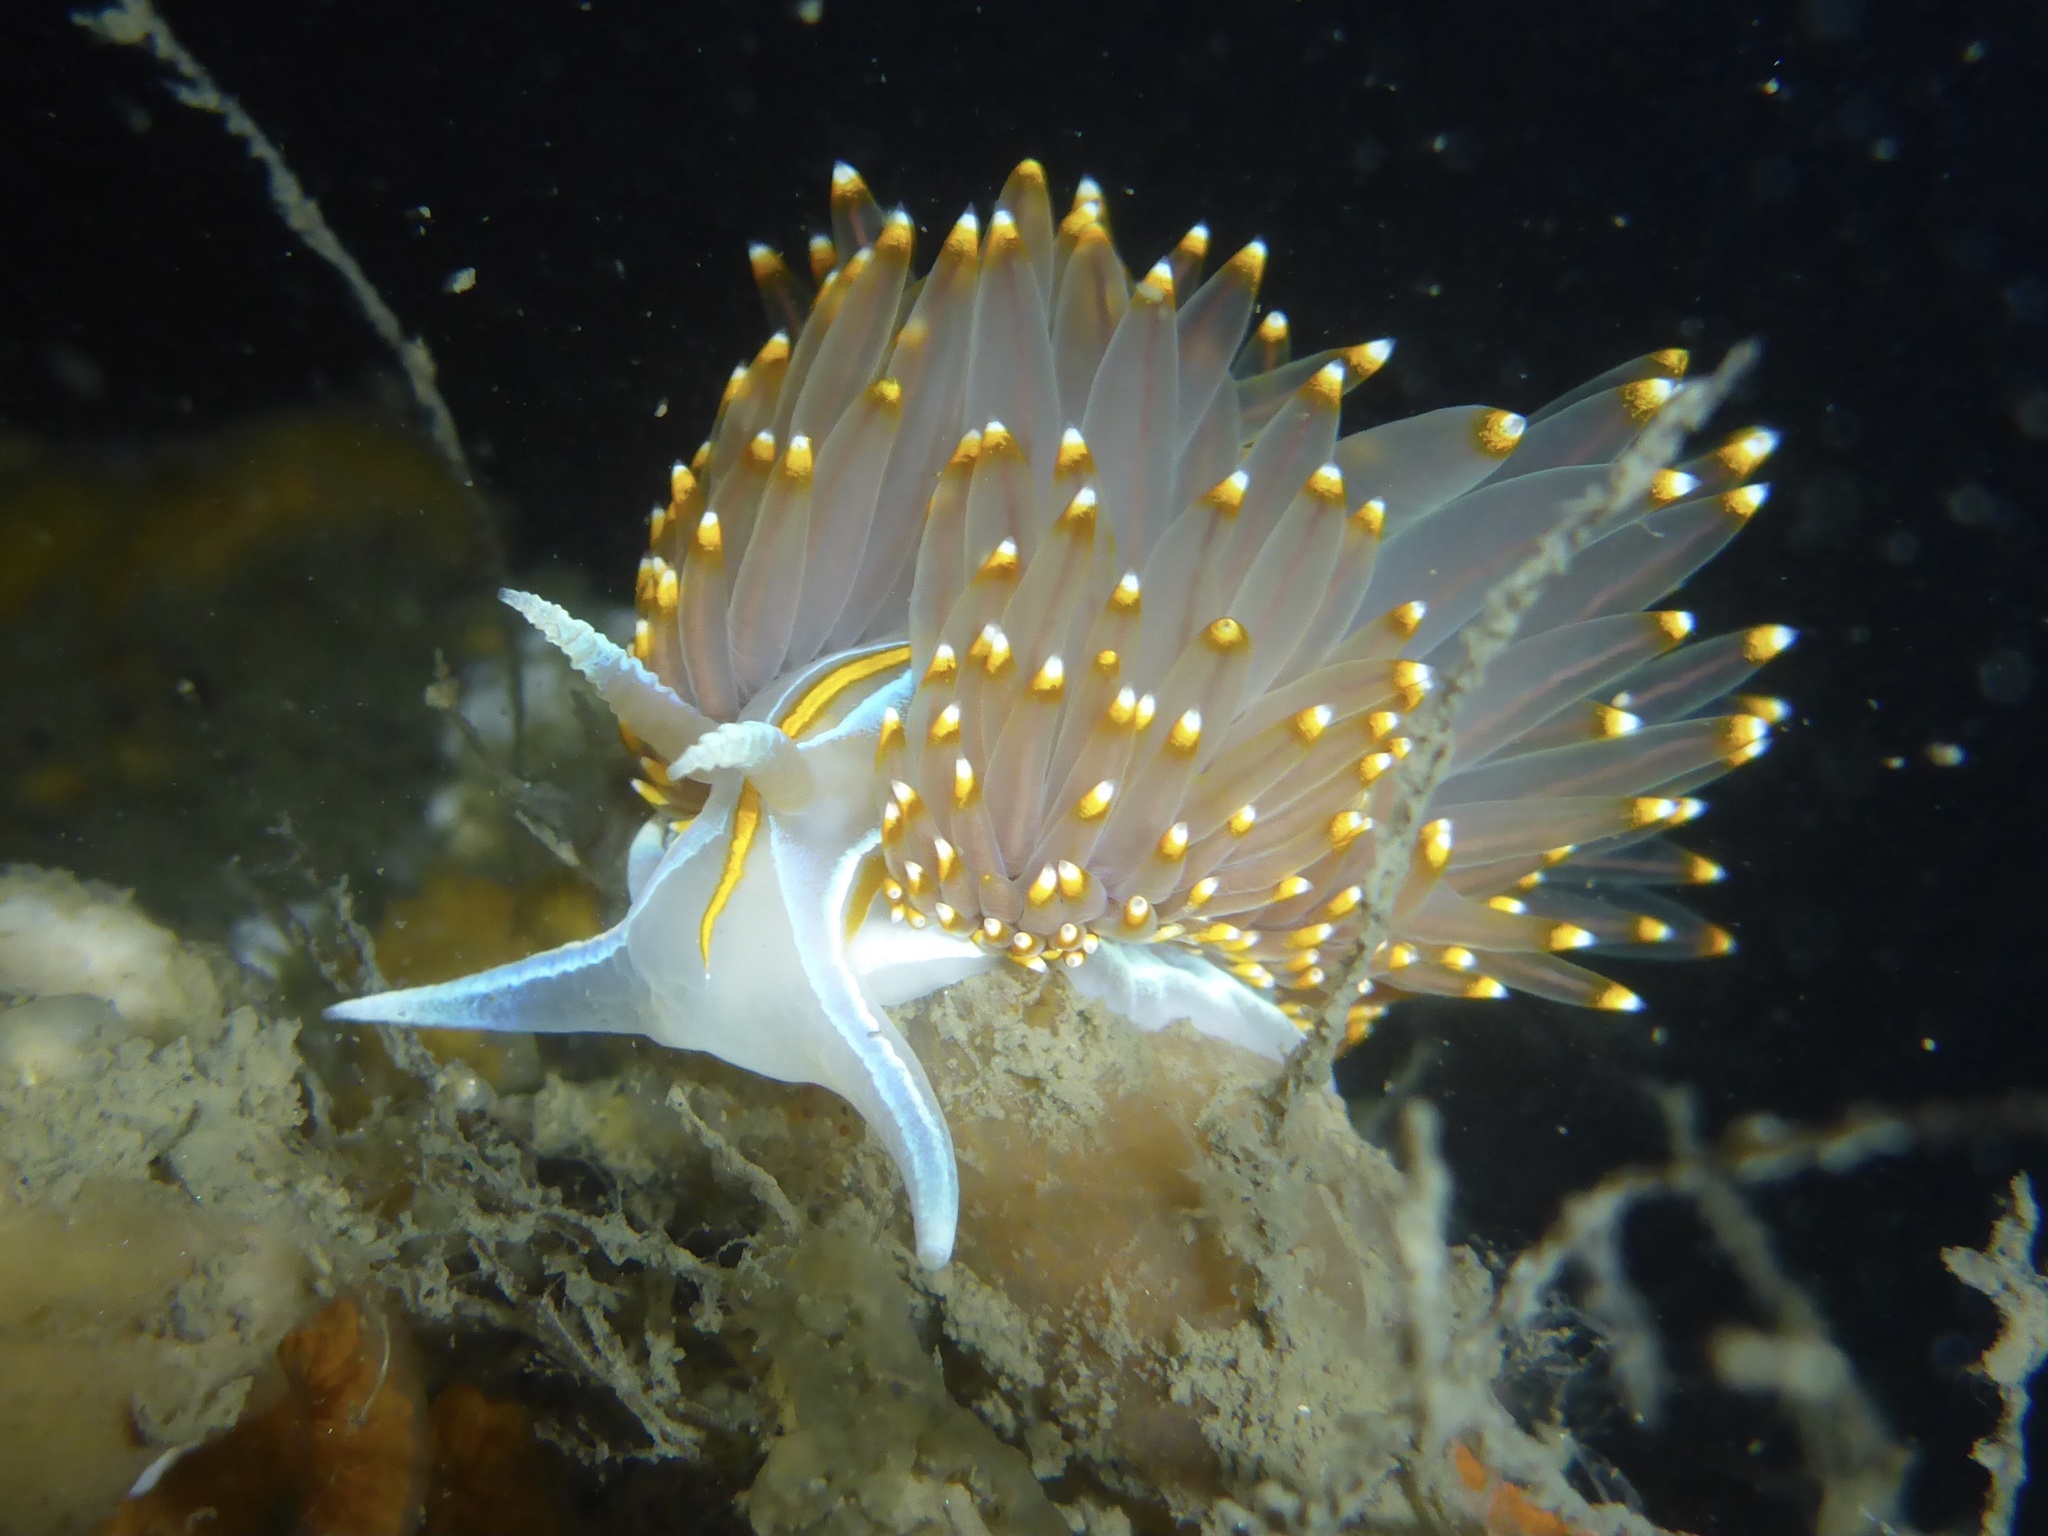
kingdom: Animalia
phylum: Mollusca
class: Gastropoda
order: Nudibranchia
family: Myrrhinidae
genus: Hermissenda
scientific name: Hermissenda opalescens
